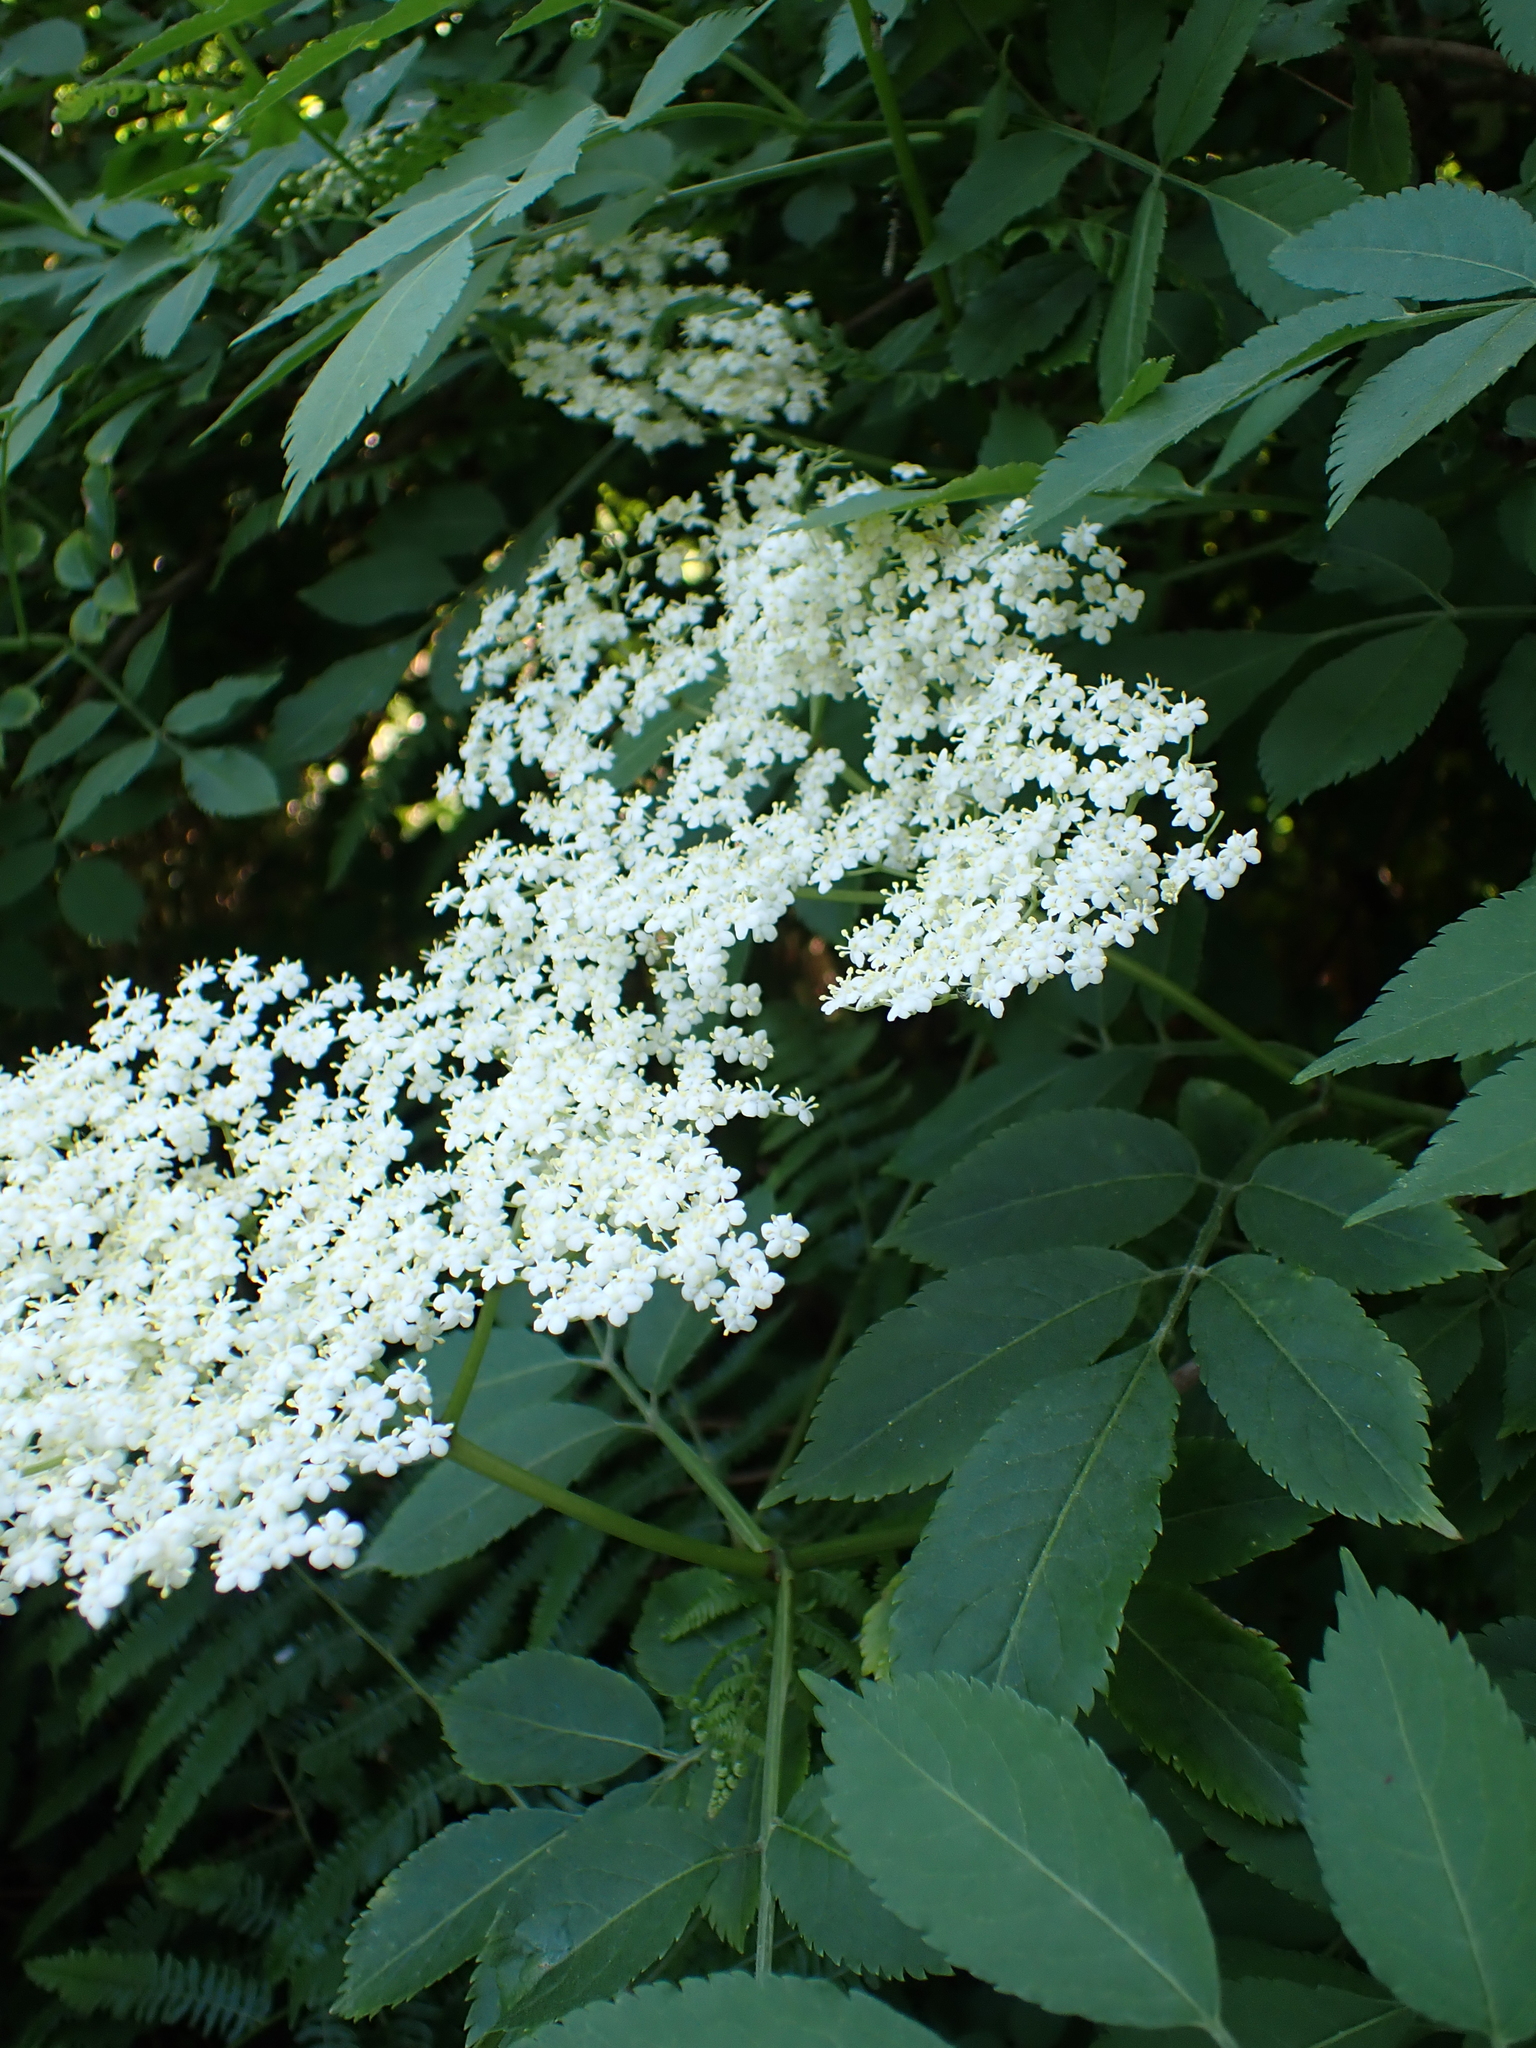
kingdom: Plantae
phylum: Tracheophyta
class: Magnoliopsida
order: Dipsacales
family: Viburnaceae
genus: Sambucus
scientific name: Sambucus nigra
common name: Elder
